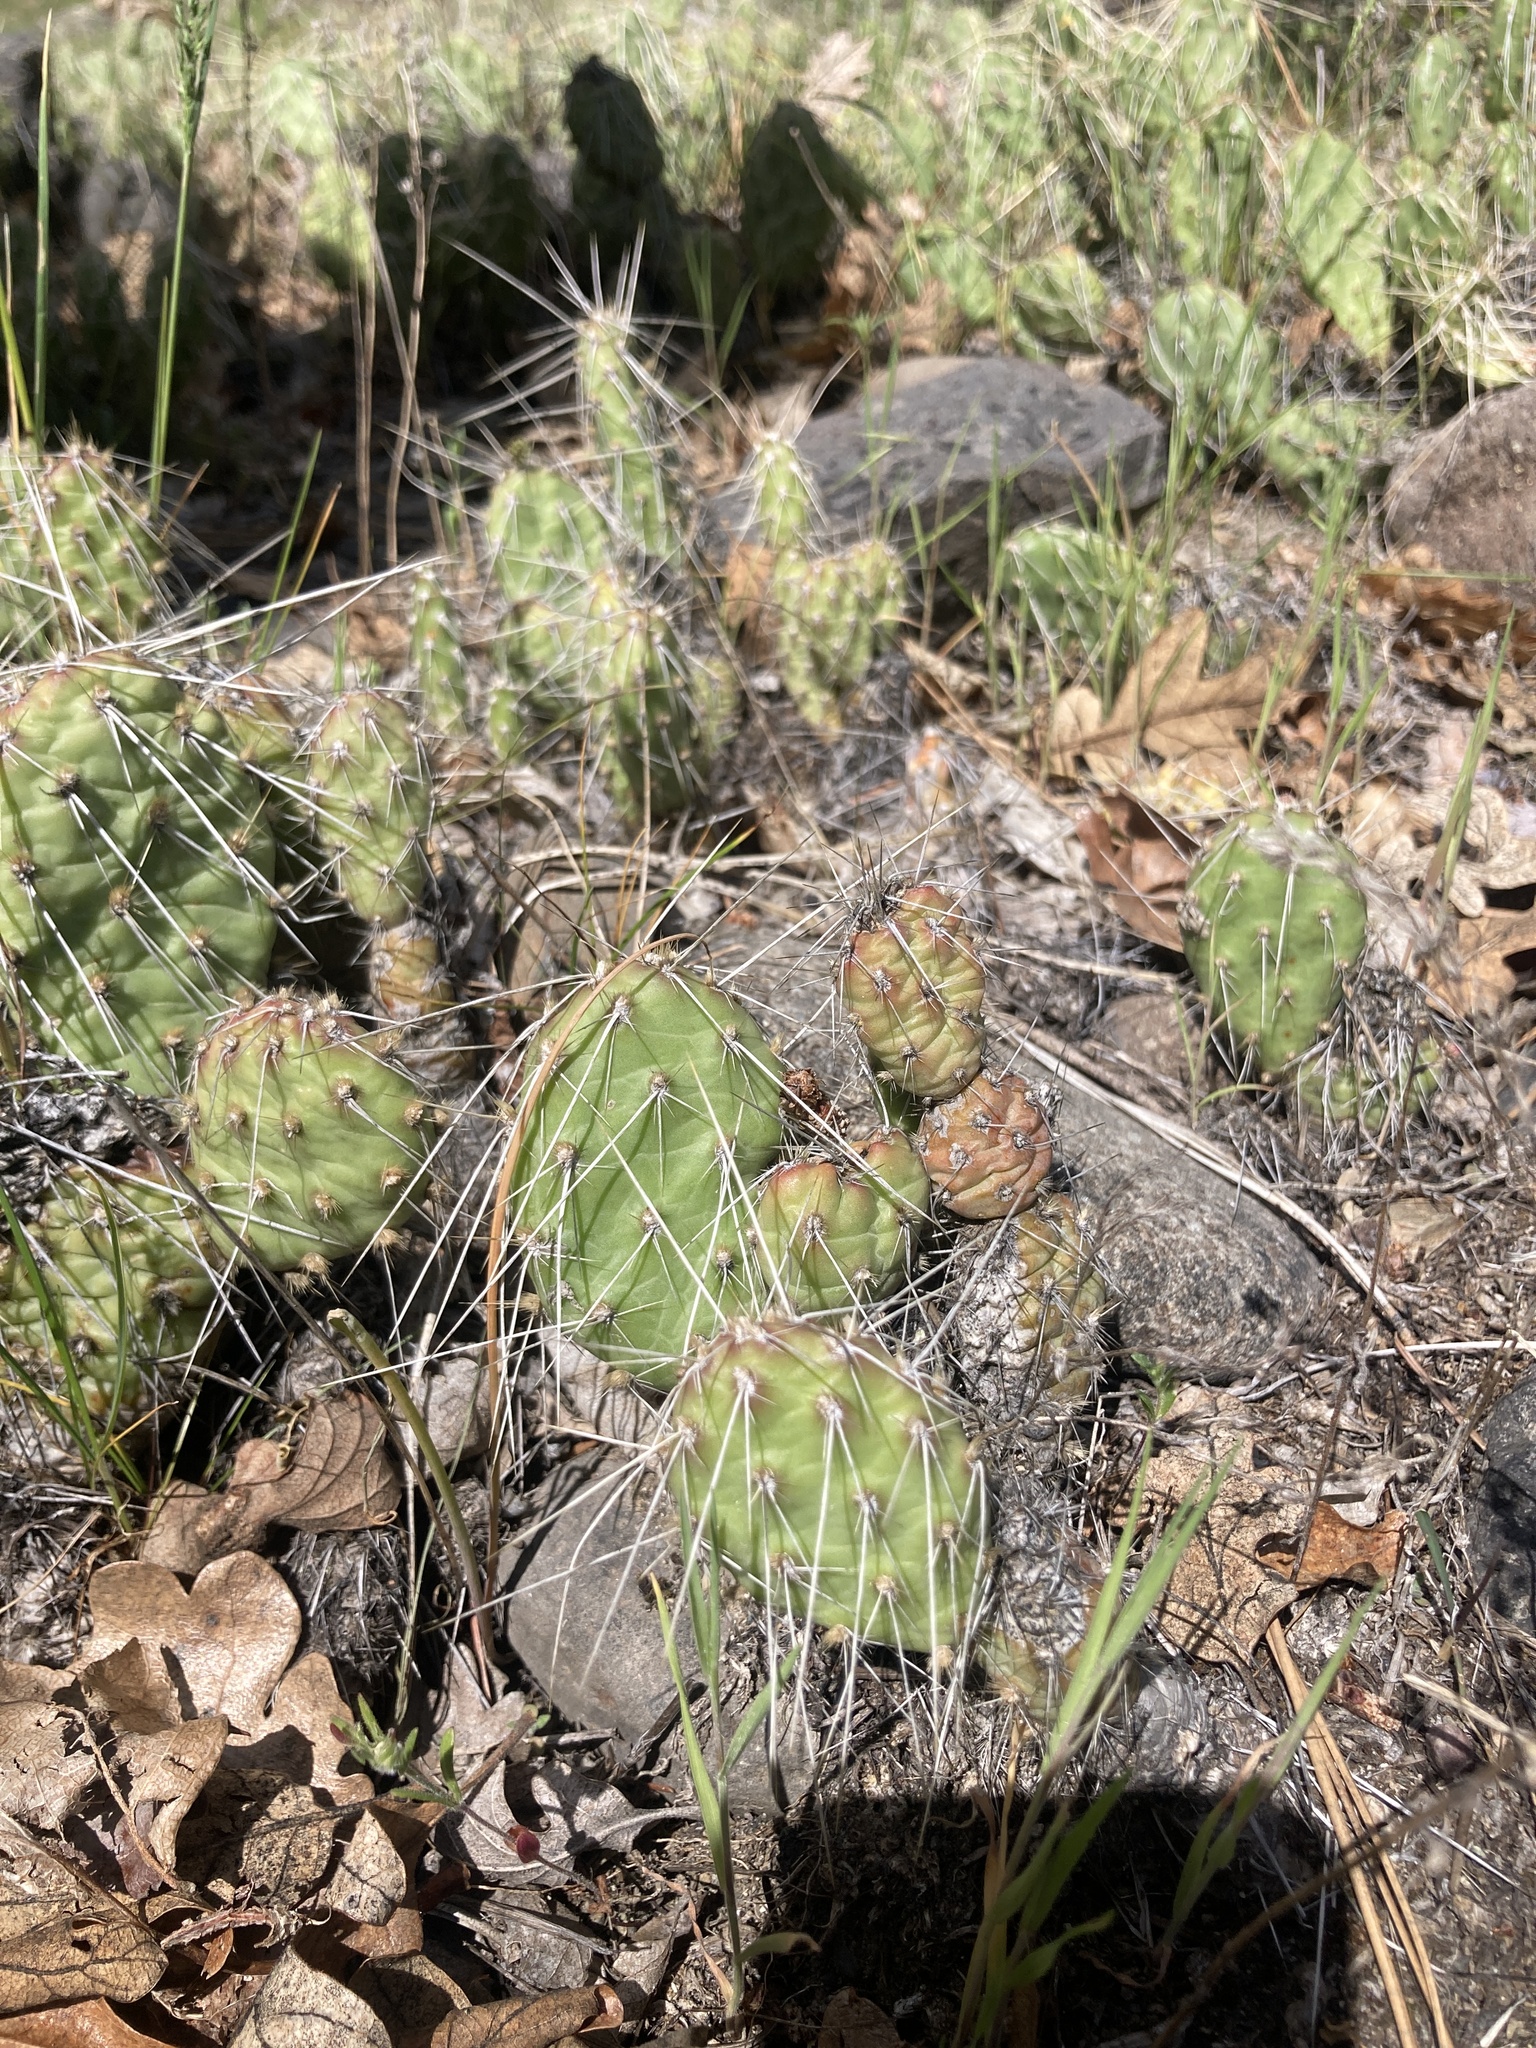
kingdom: Plantae
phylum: Tracheophyta
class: Magnoliopsida
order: Caryophyllales
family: Cactaceae
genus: Opuntia
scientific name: Opuntia columbiana
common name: Columbia prickly-pear
